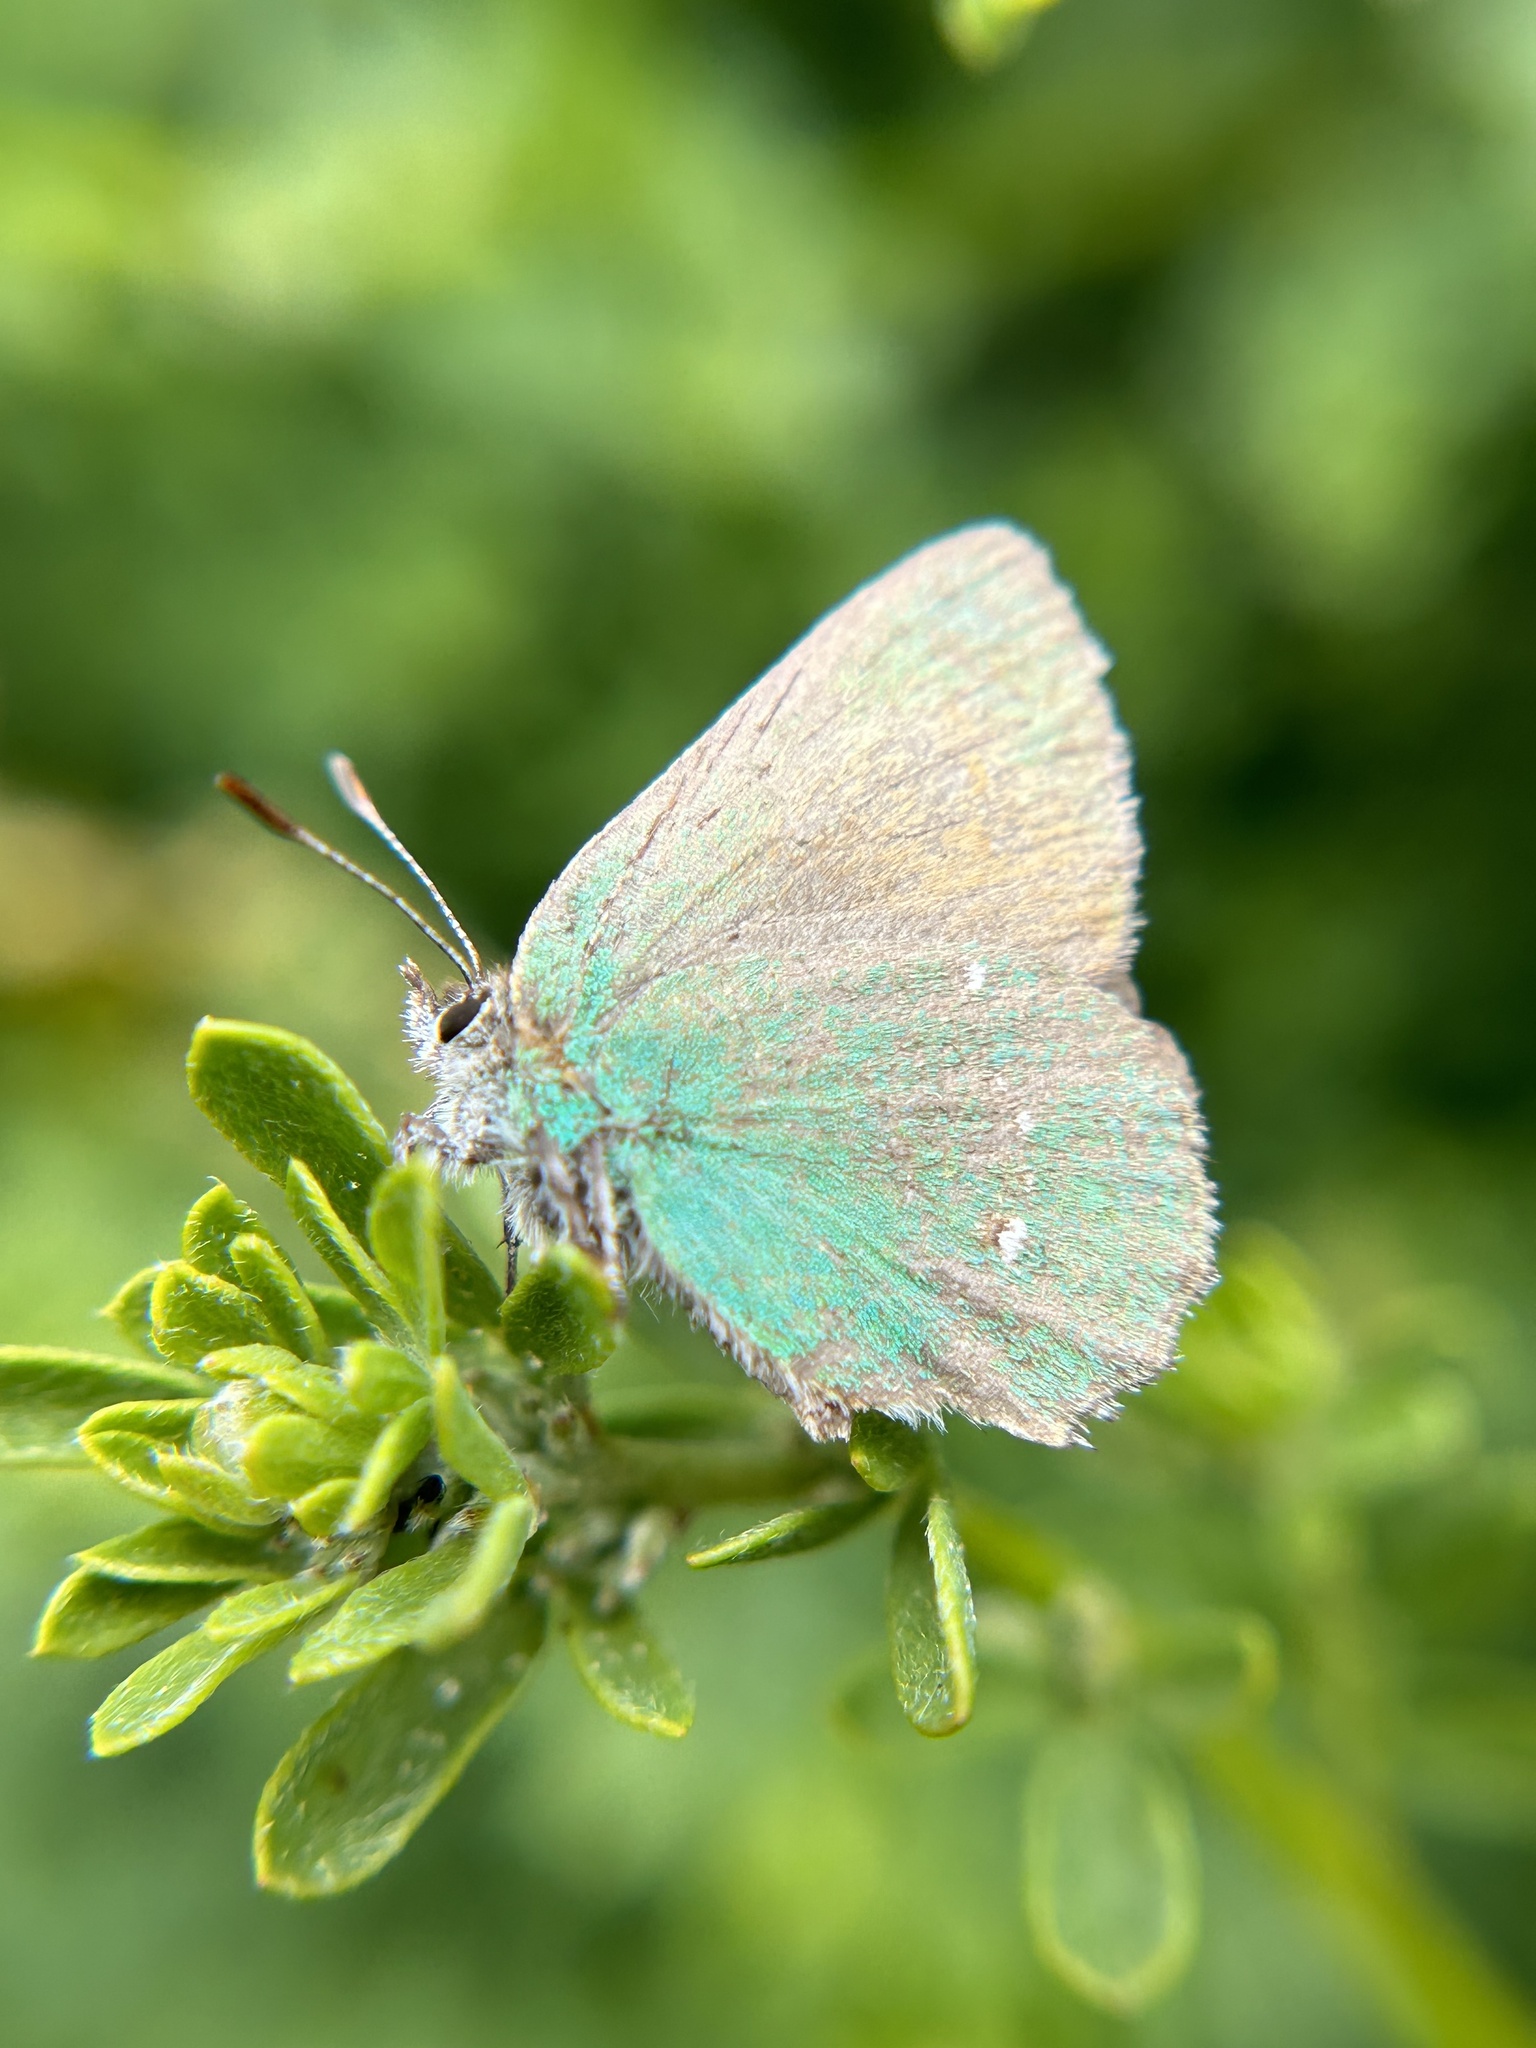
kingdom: Animalia
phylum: Arthropoda
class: Insecta
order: Lepidoptera
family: Lycaenidae
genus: Callophrys
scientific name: Callophrys dumetorum
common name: Bramble hairstreak
